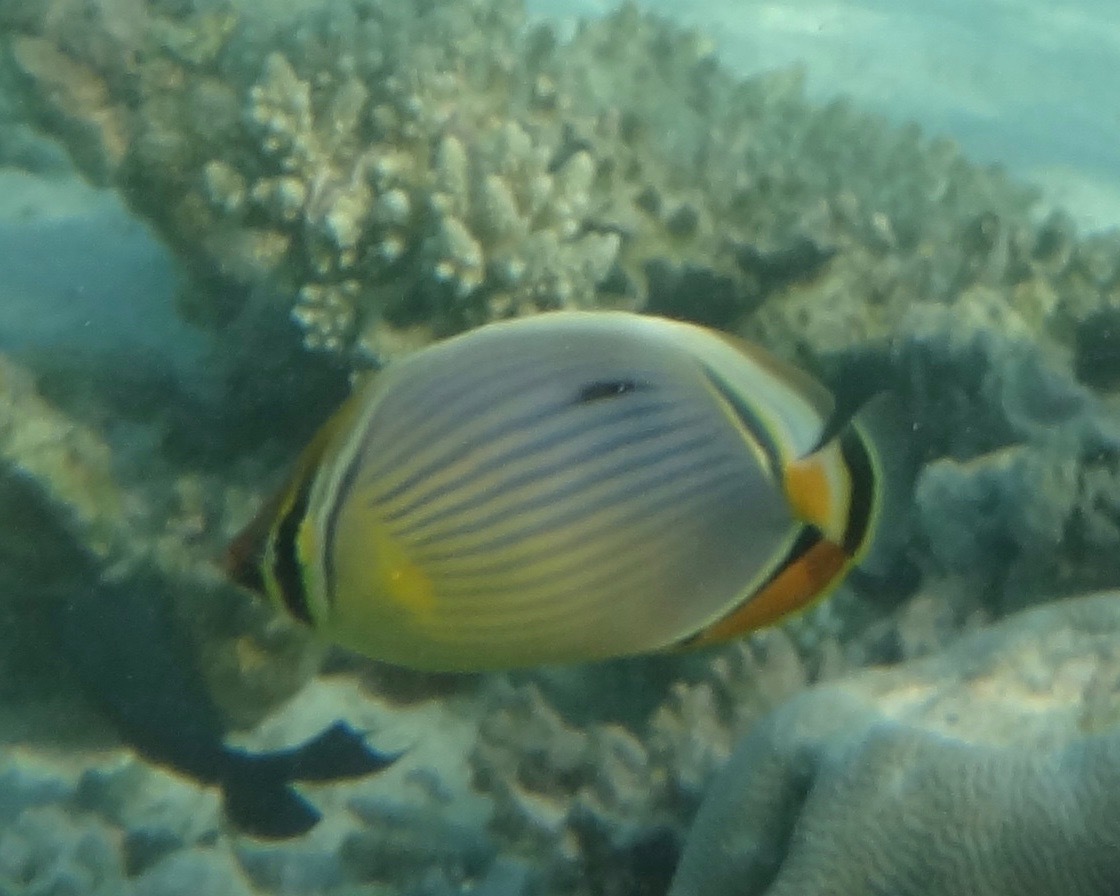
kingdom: Animalia
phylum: Chordata
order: Perciformes
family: Chaetodontidae
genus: Chaetodon
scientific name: Chaetodon trifasciatus
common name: Redfin butterflyfish
